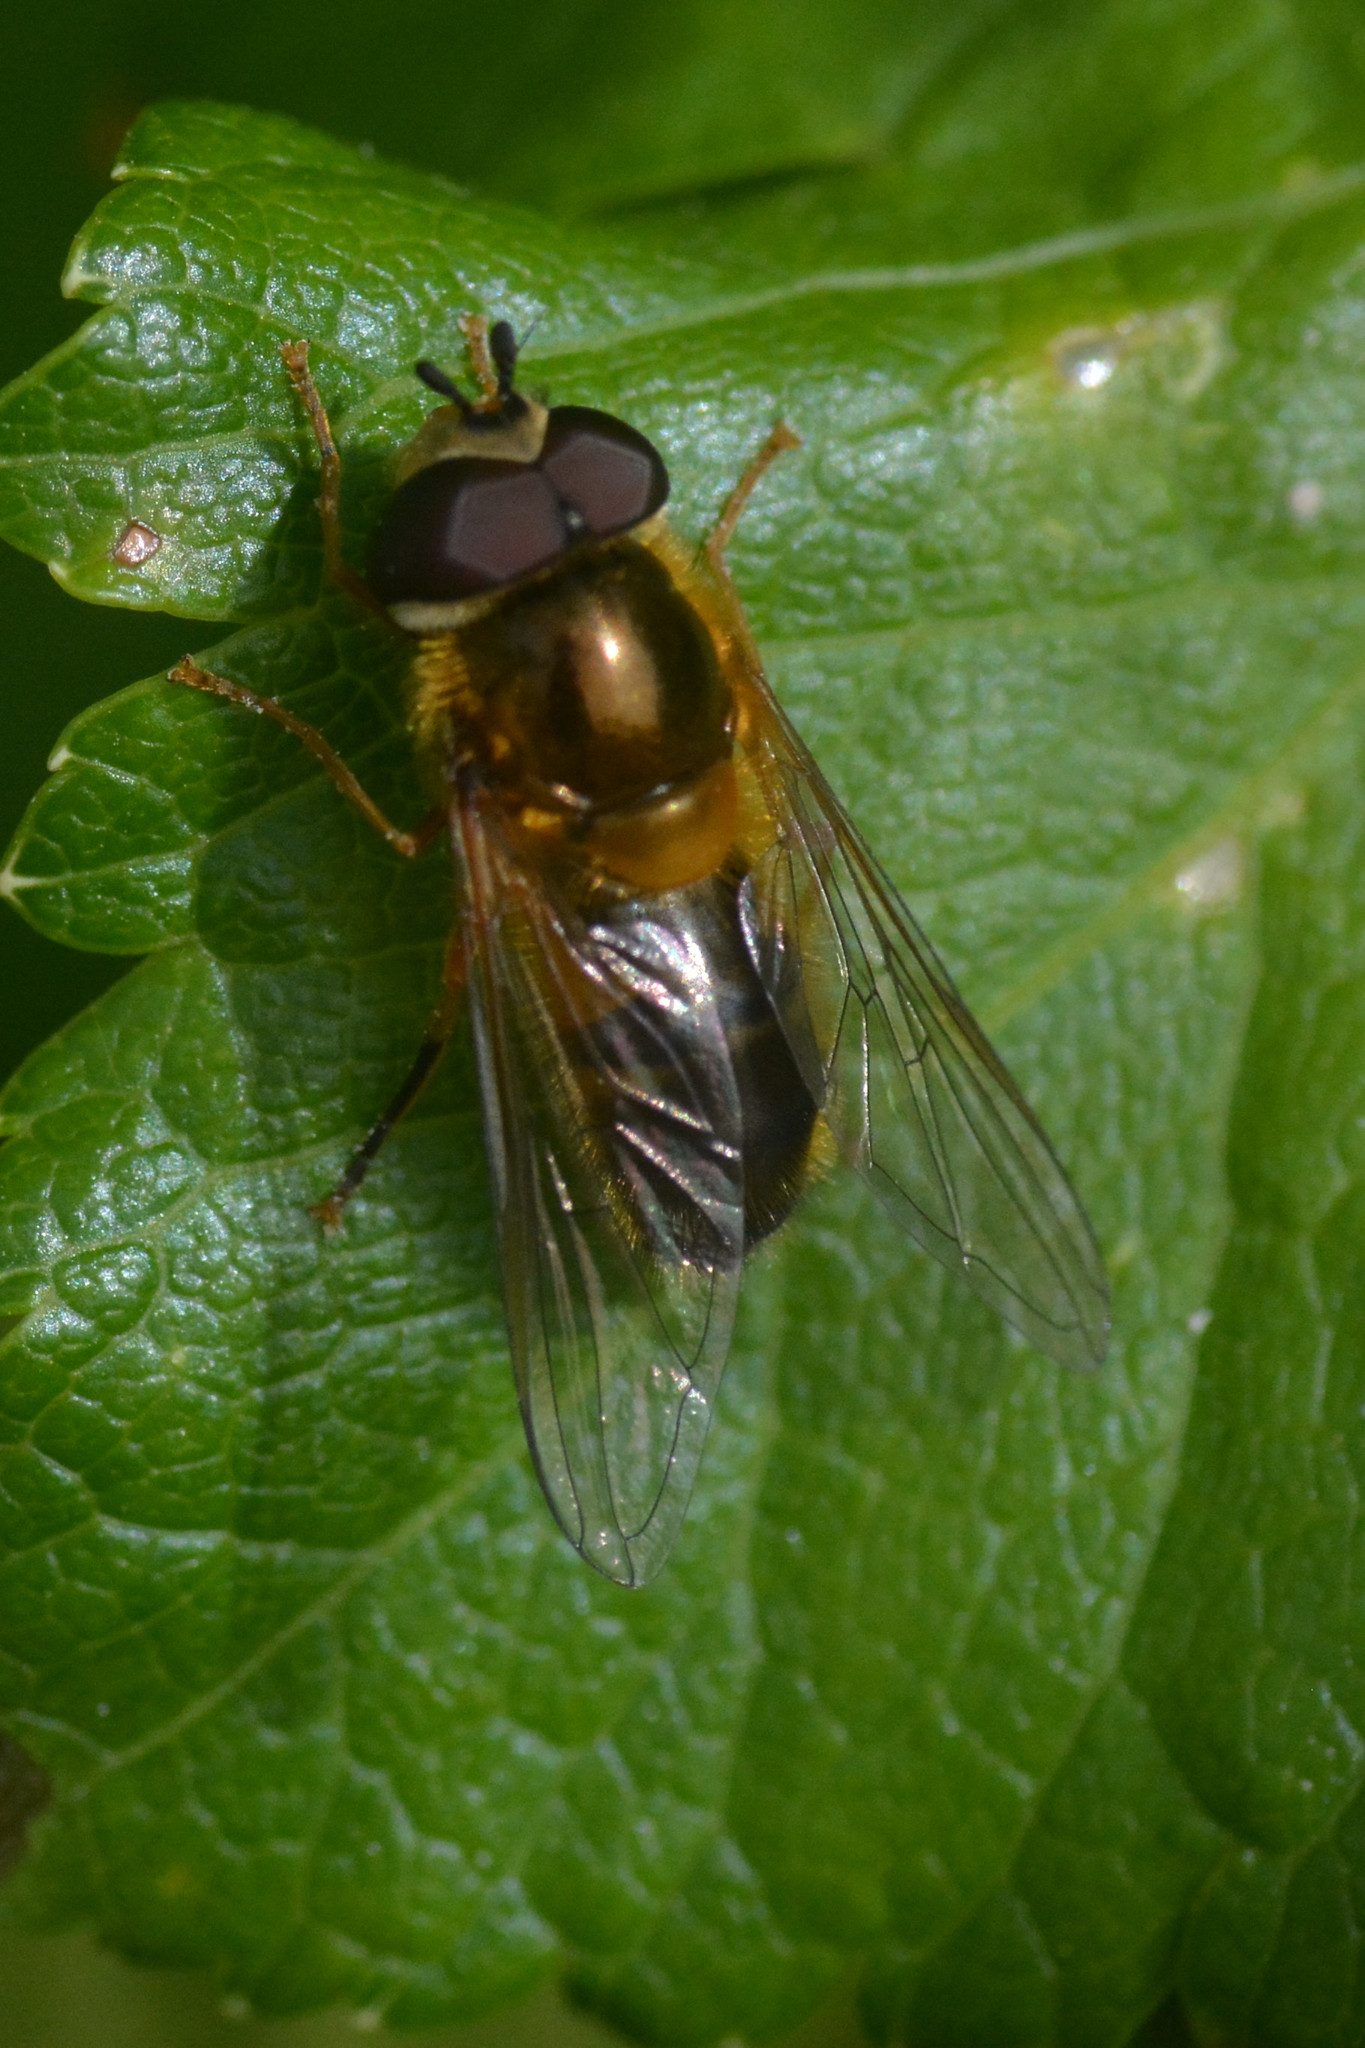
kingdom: Animalia
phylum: Arthropoda
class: Insecta
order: Diptera
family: Syrphidae
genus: Epistrophe
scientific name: Epistrophe eligans
